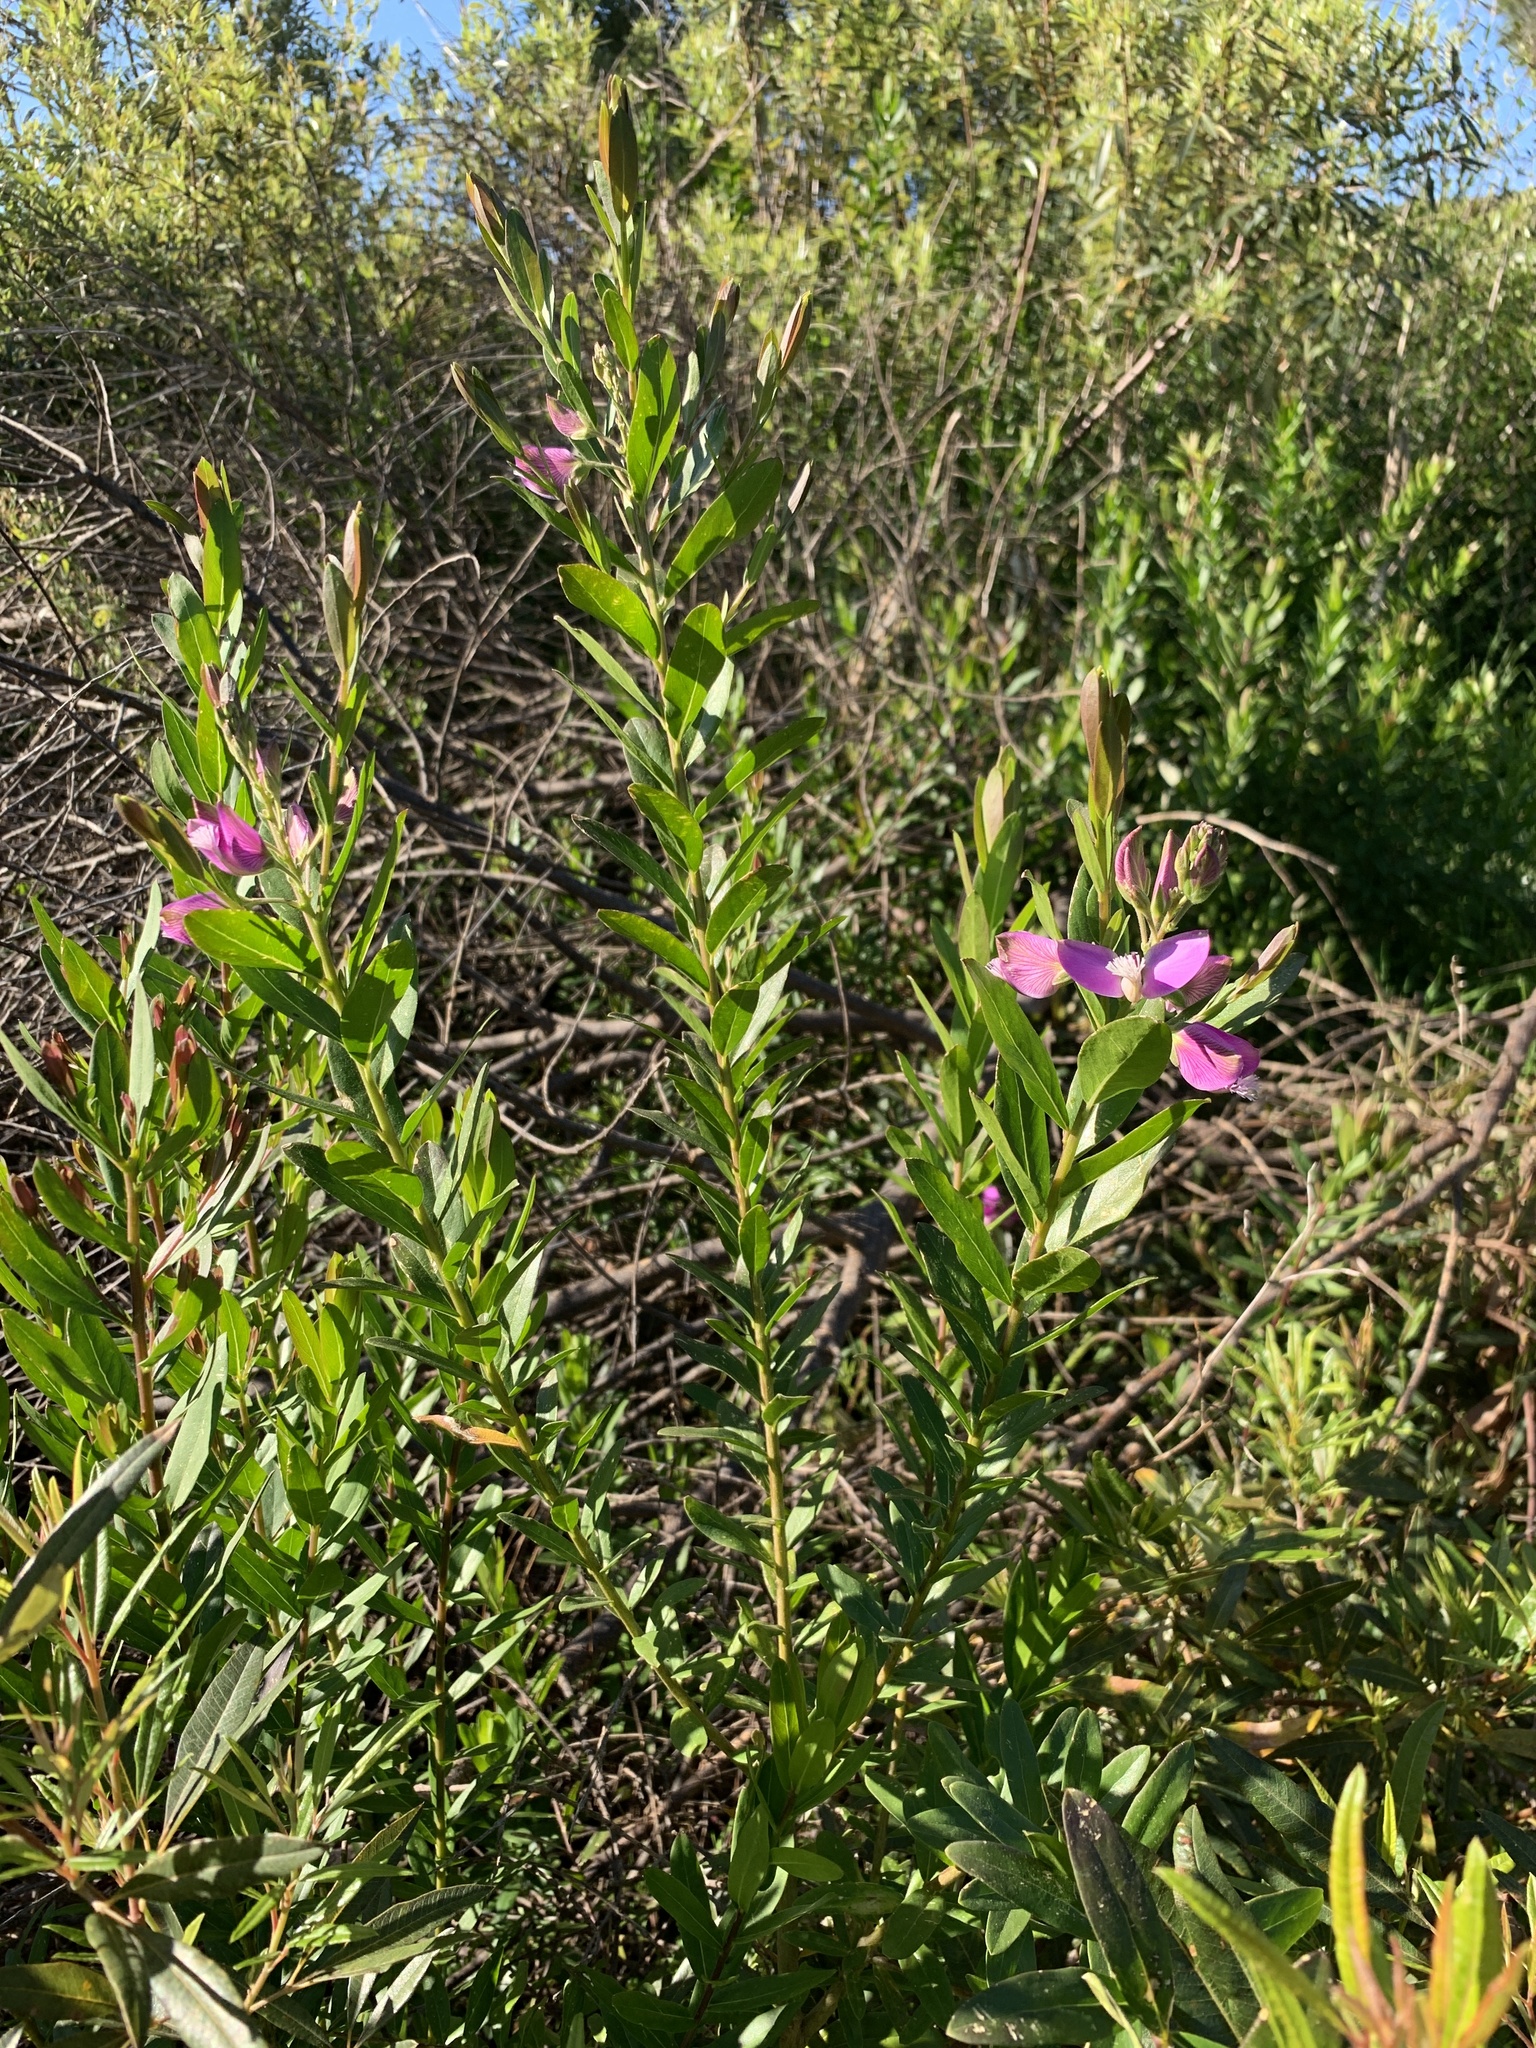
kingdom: Plantae
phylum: Tracheophyta
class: Magnoliopsida
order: Fabales
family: Polygalaceae
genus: Polygala
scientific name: Polygala myrtifolia
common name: Myrtle-leaf milkwort
